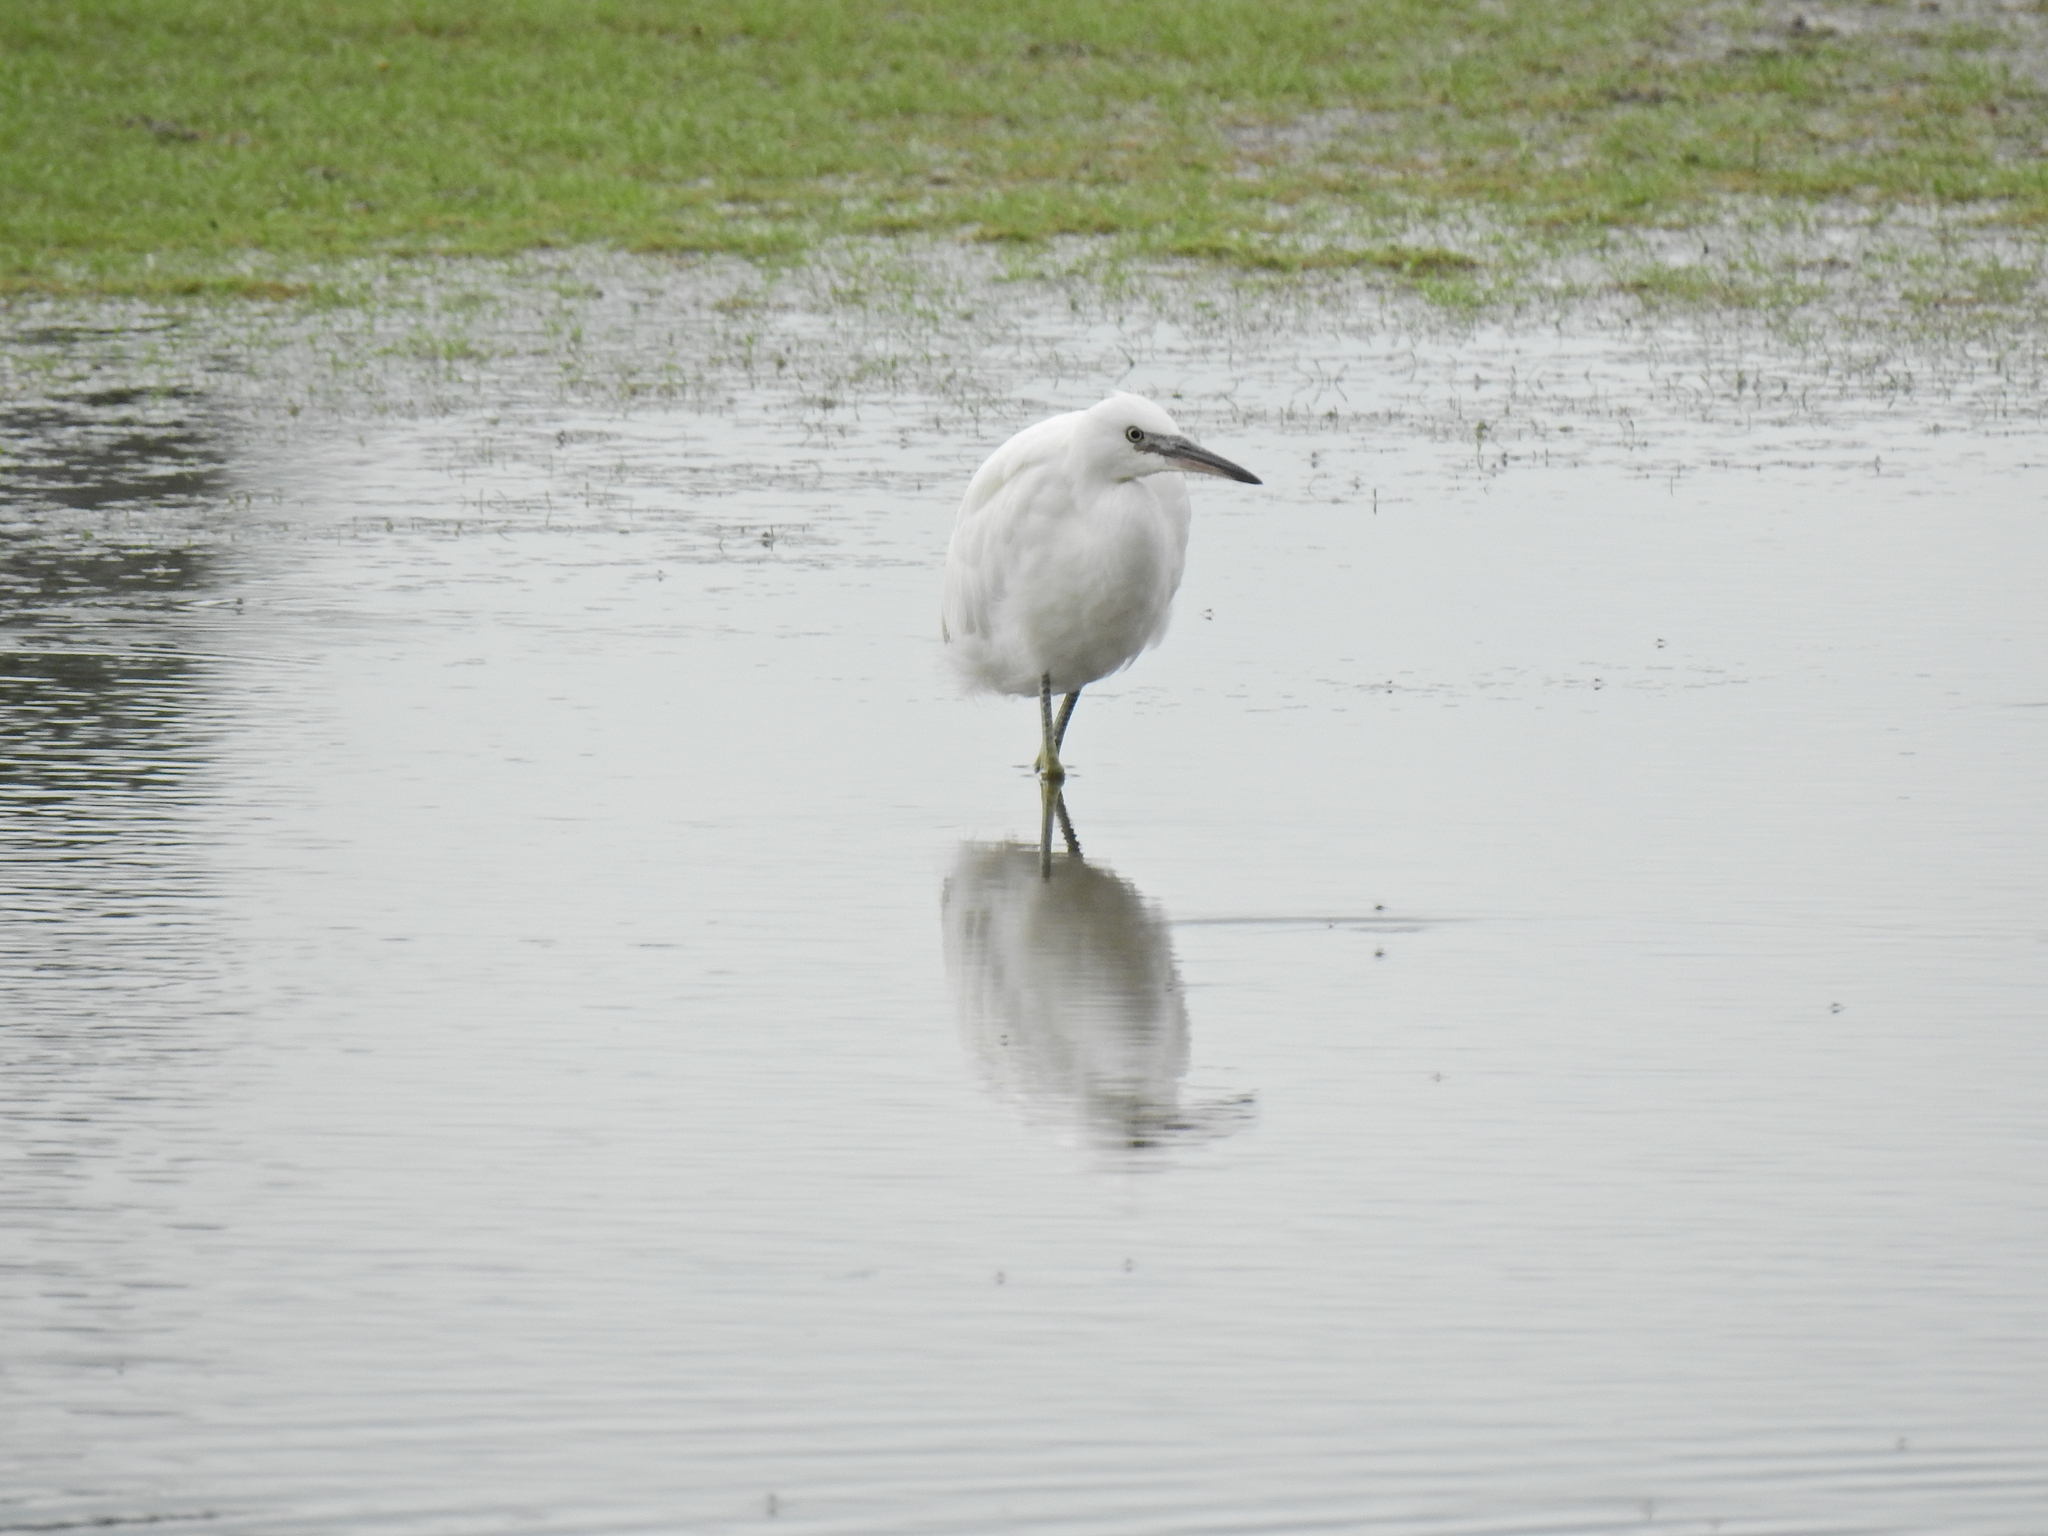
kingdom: Animalia
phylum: Chordata
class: Aves
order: Pelecaniformes
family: Ardeidae
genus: Egretta
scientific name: Egretta garzetta
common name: Little egret
